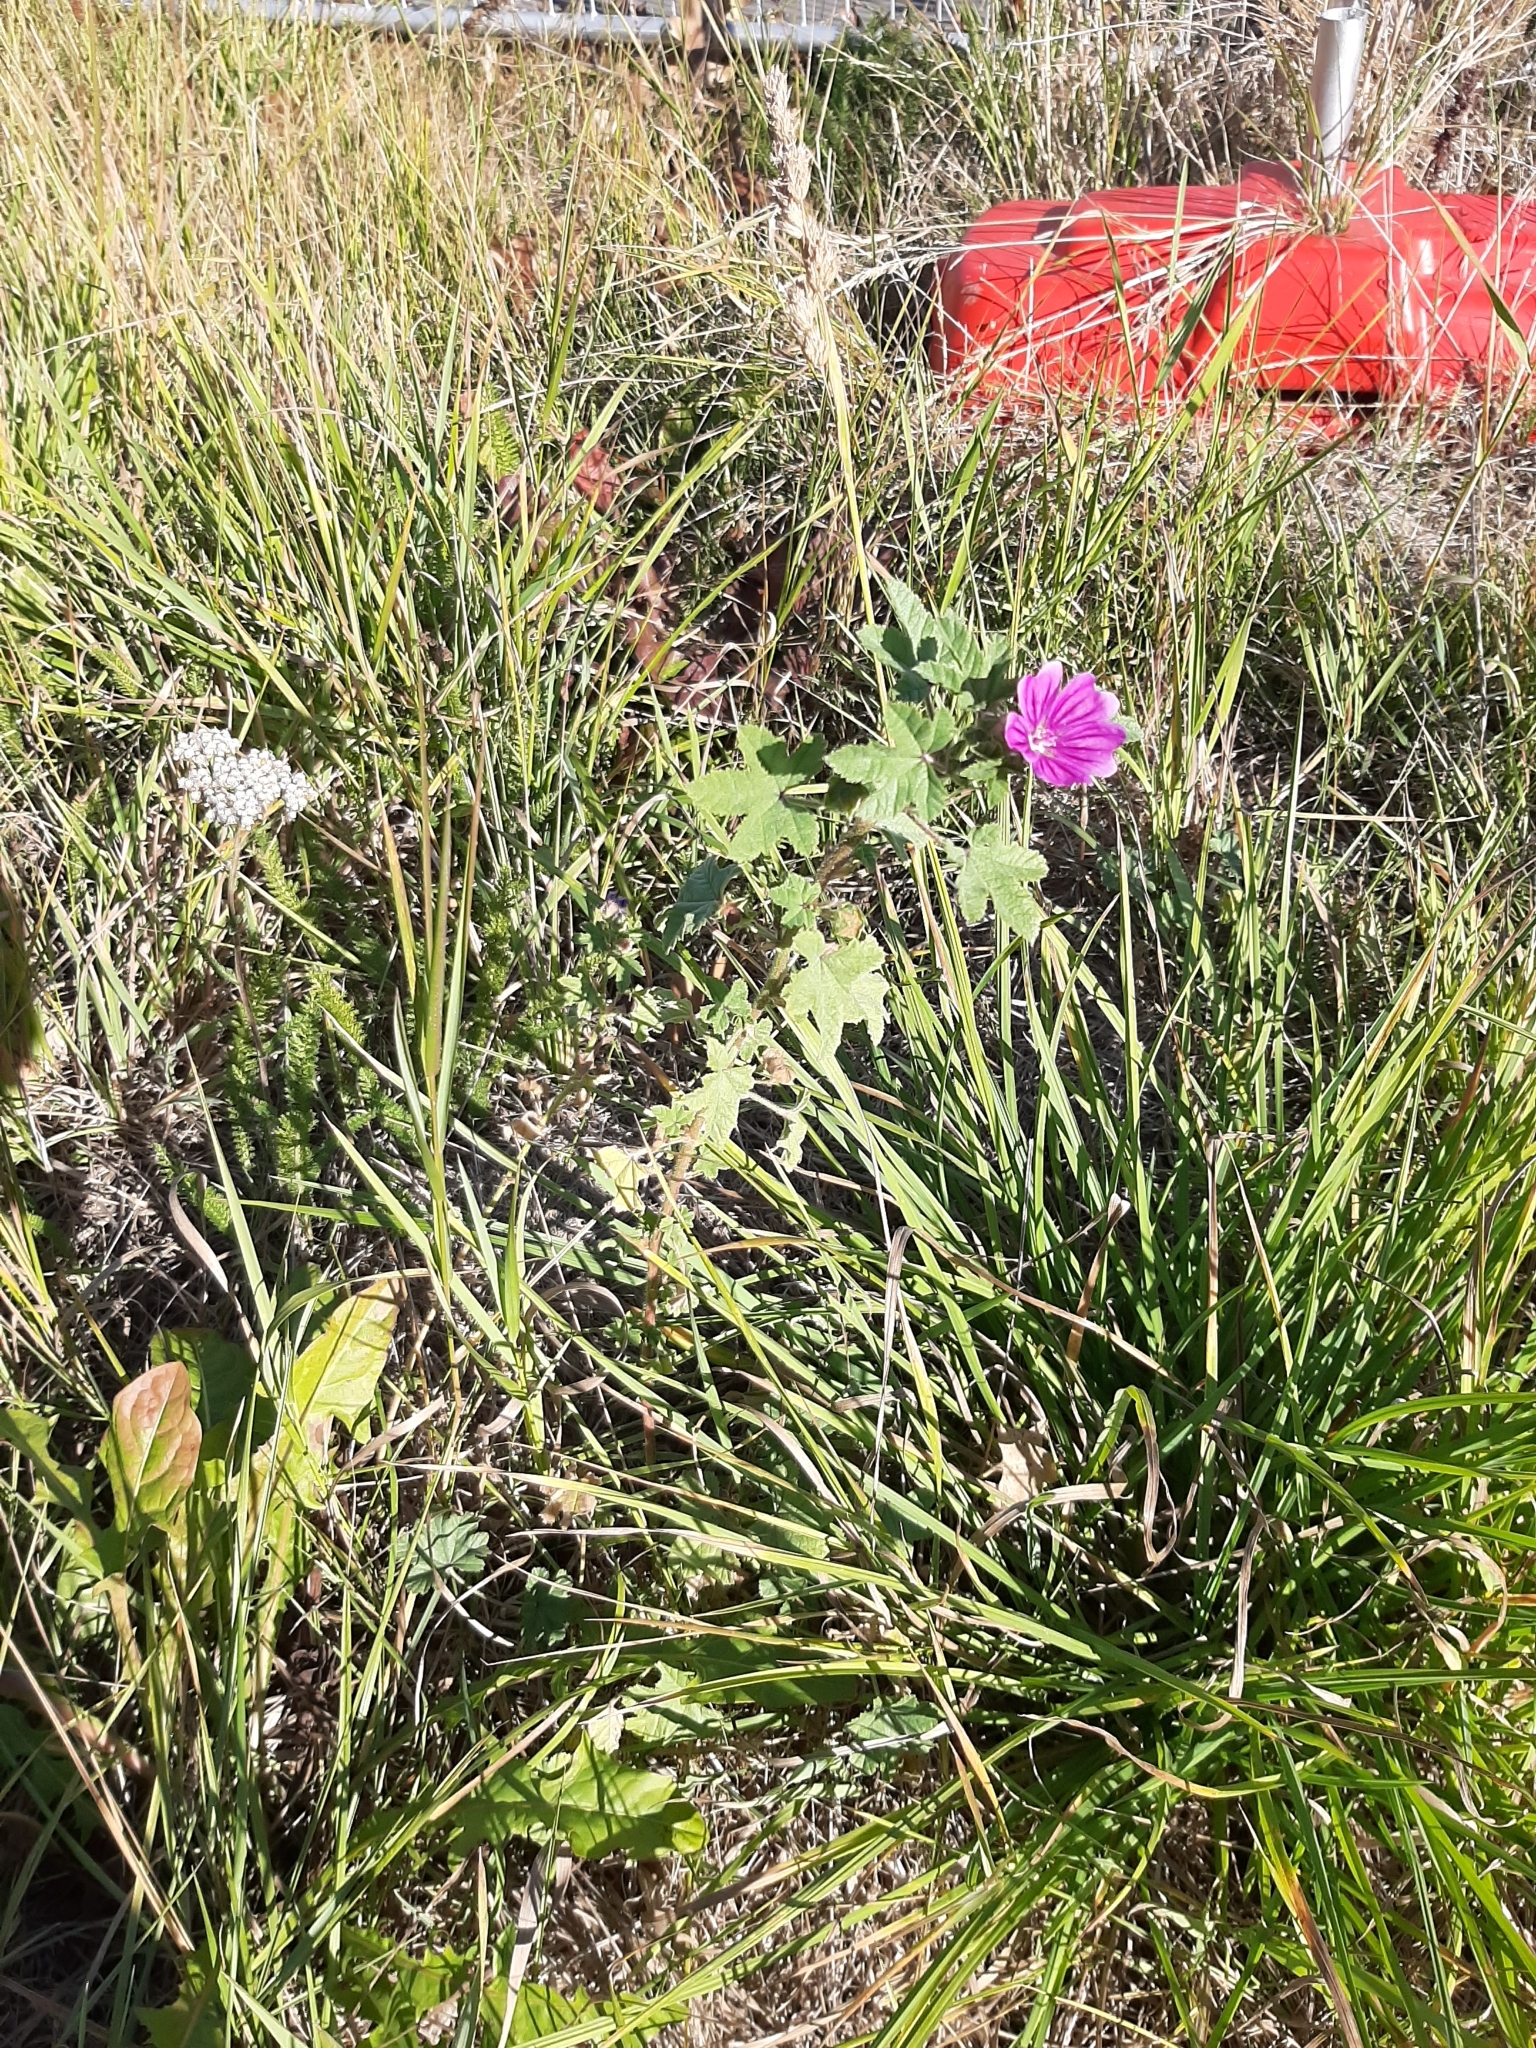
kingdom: Plantae
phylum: Tracheophyta
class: Magnoliopsida
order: Malvales
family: Malvaceae
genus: Malva
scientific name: Malva sylvestris
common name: Common mallow
